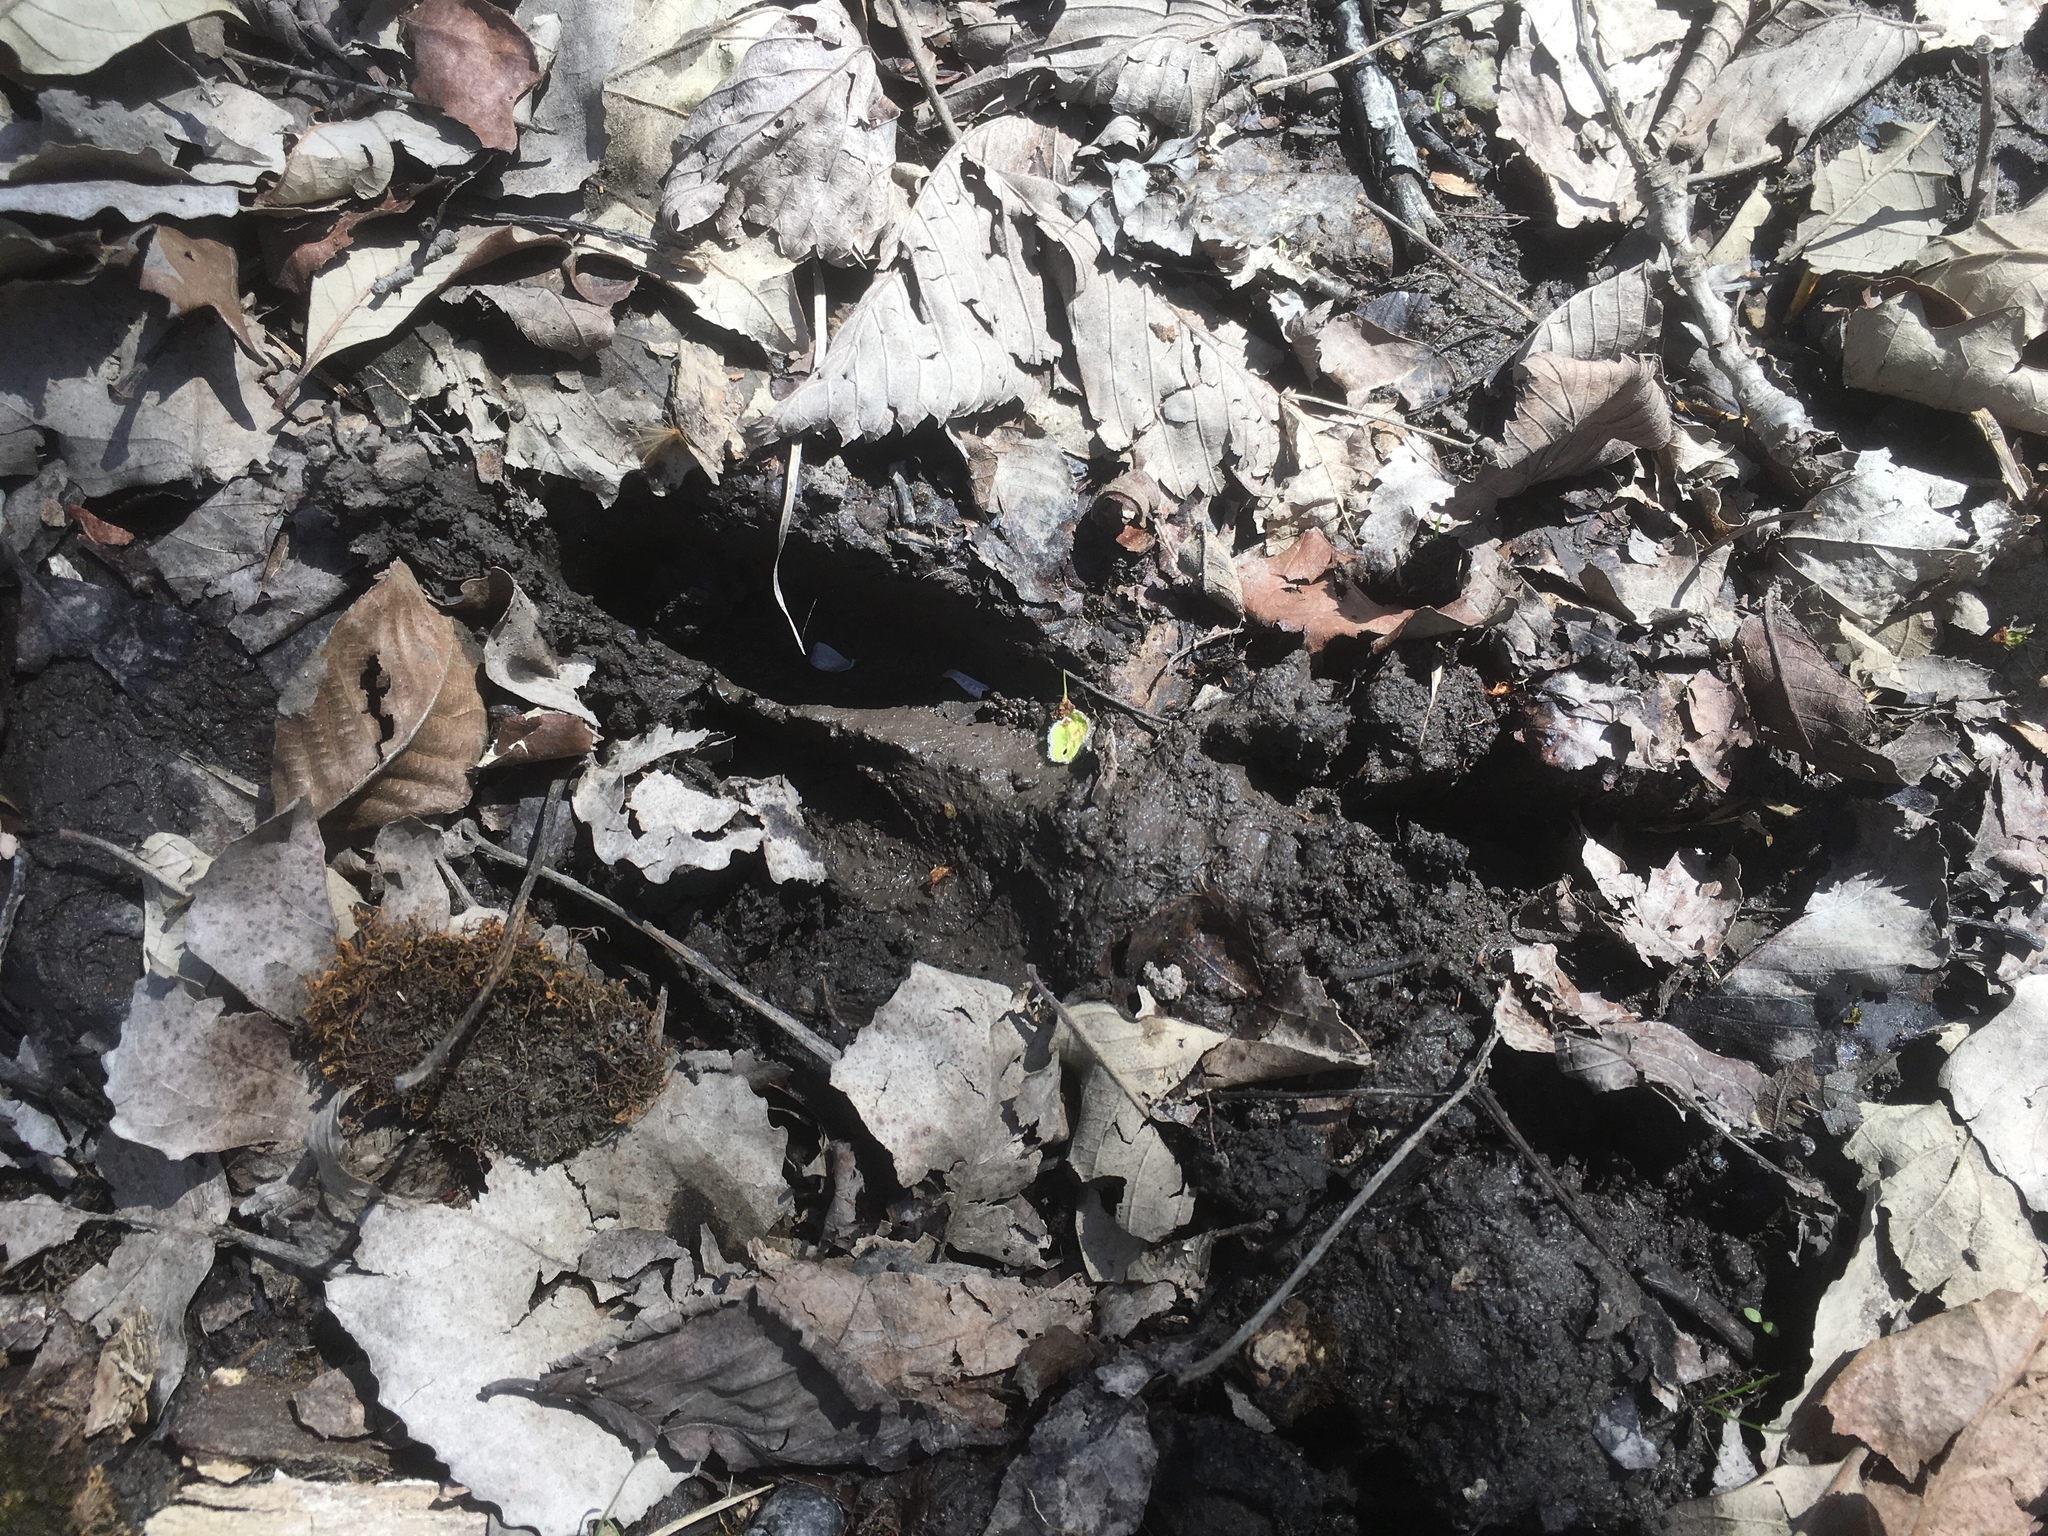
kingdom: Animalia
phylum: Chordata
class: Mammalia
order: Artiodactyla
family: Cervidae
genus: Odocoileus
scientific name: Odocoileus virginianus
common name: White-tailed deer
